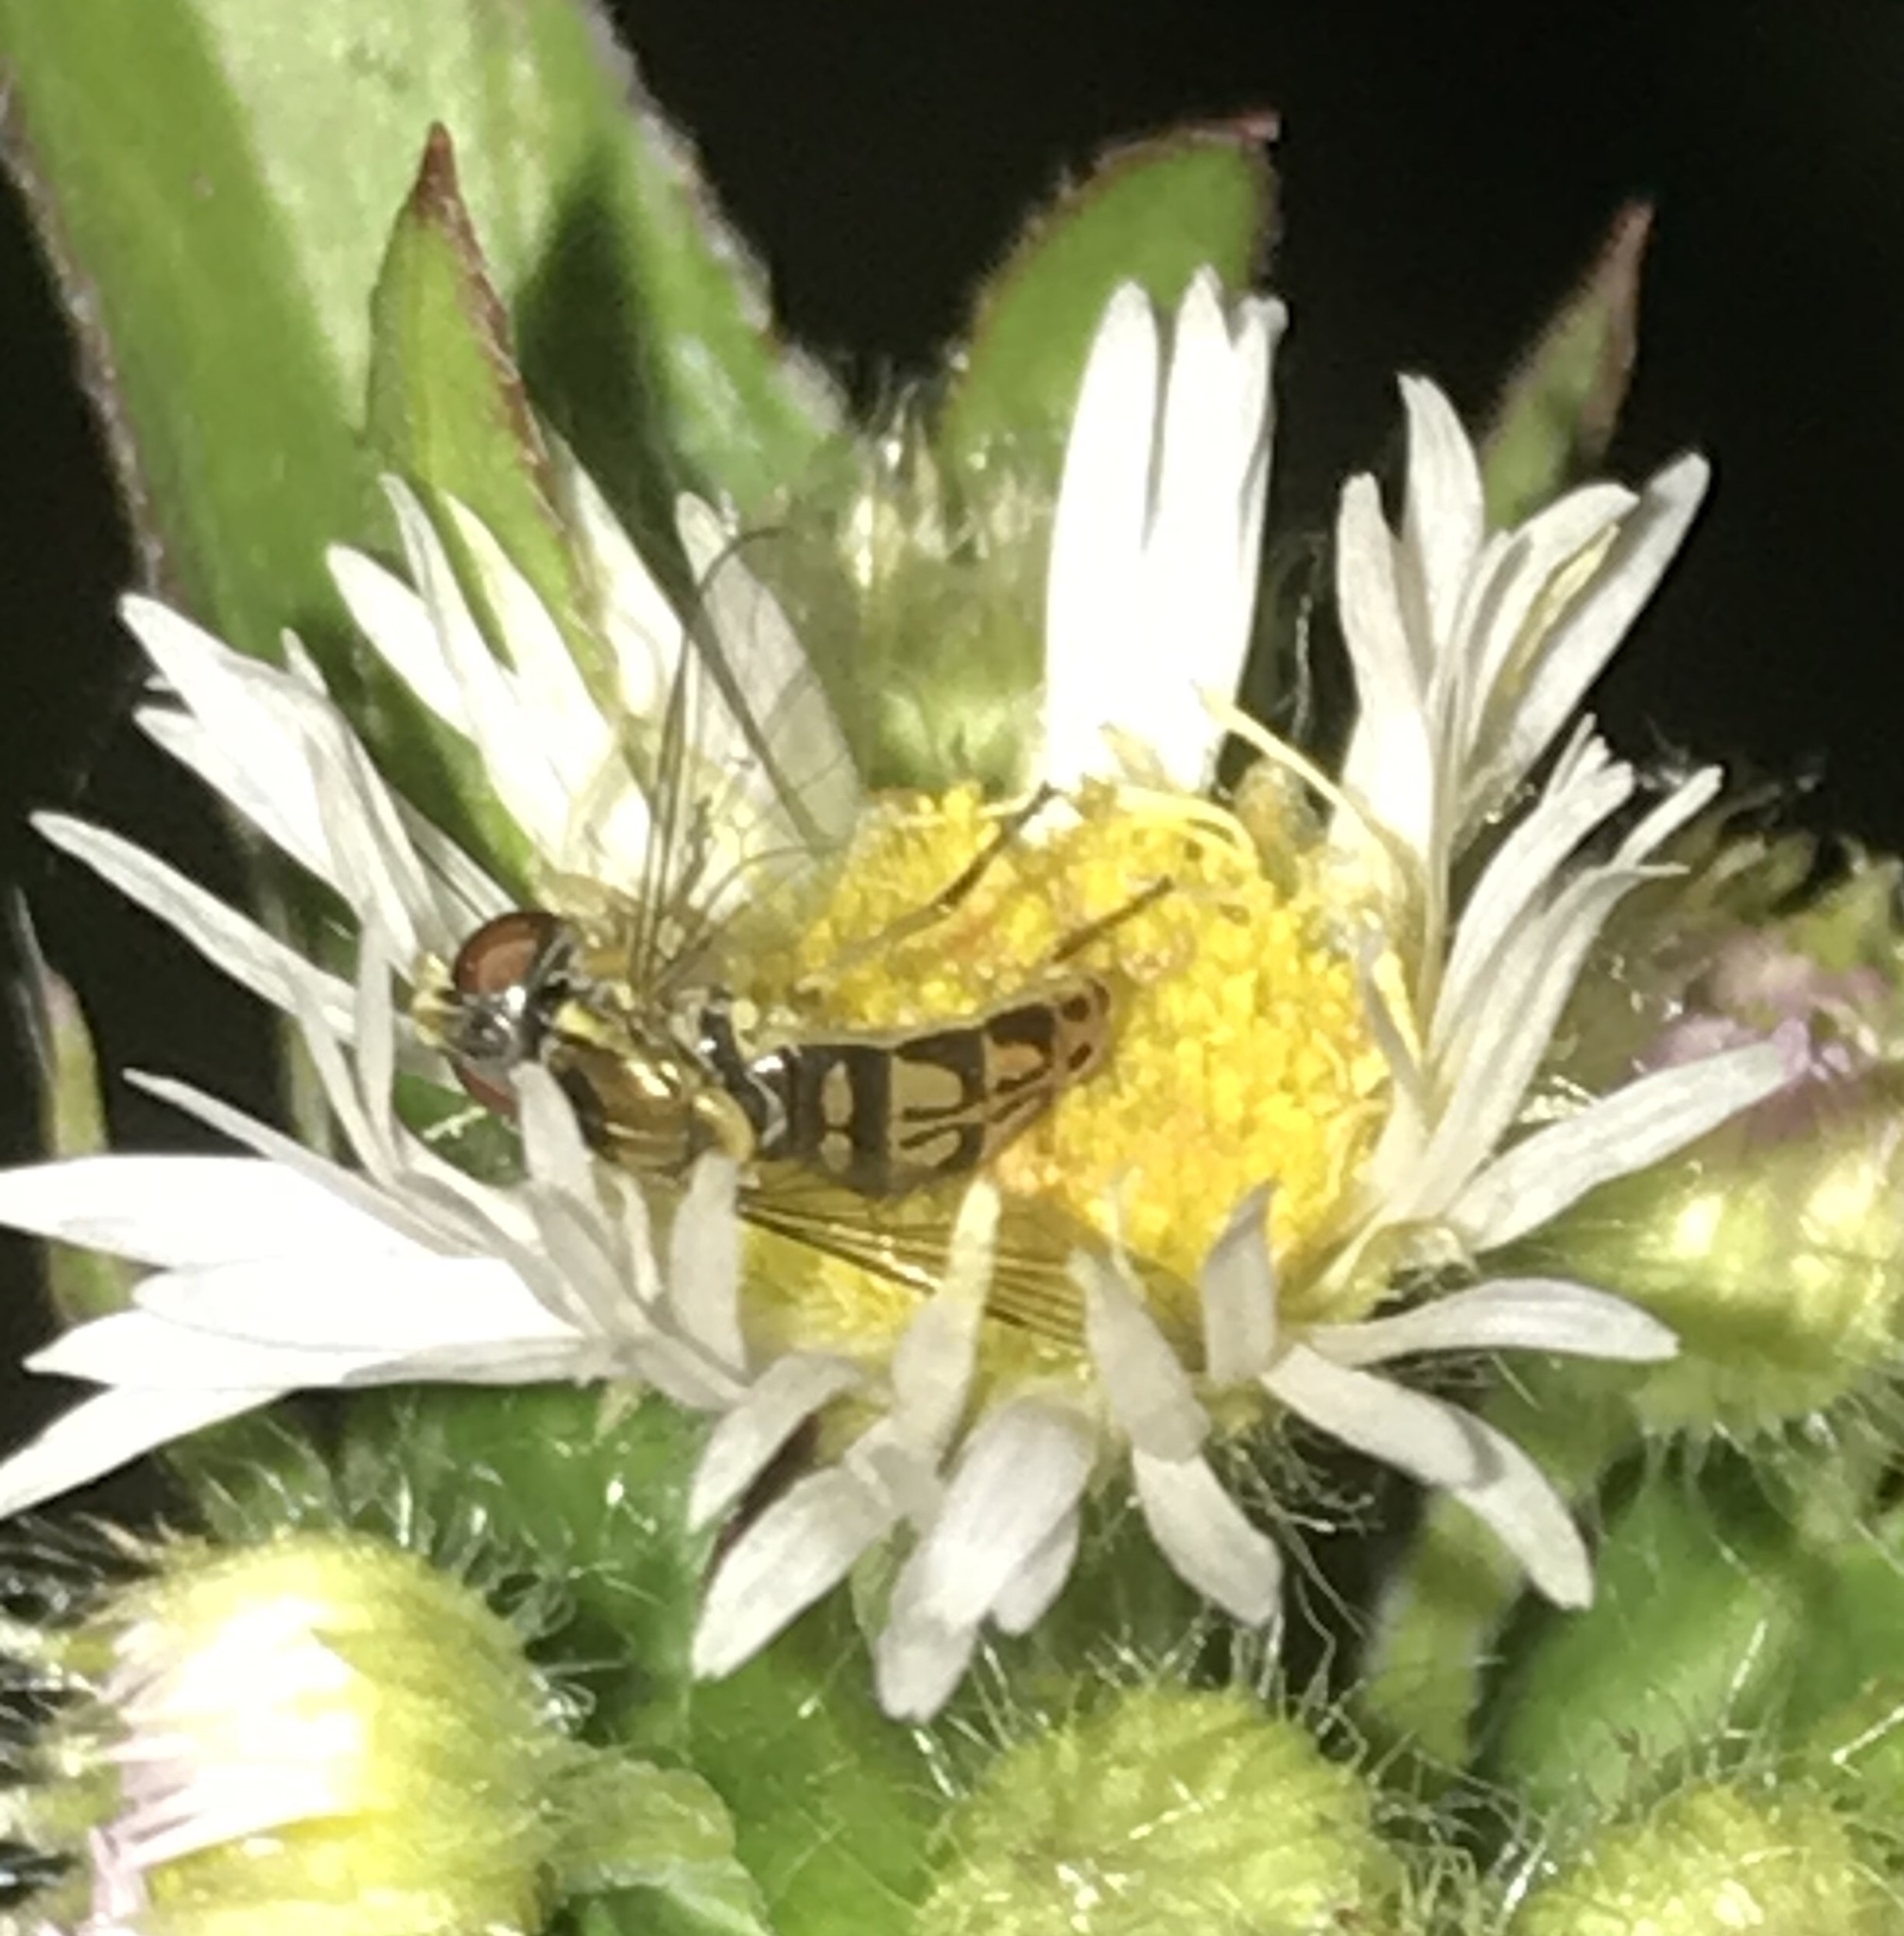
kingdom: Animalia
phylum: Arthropoda
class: Insecta
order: Diptera
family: Syrphidae
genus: Toxomerus
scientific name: Toxomerus marginatus
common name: Syrphid fly
